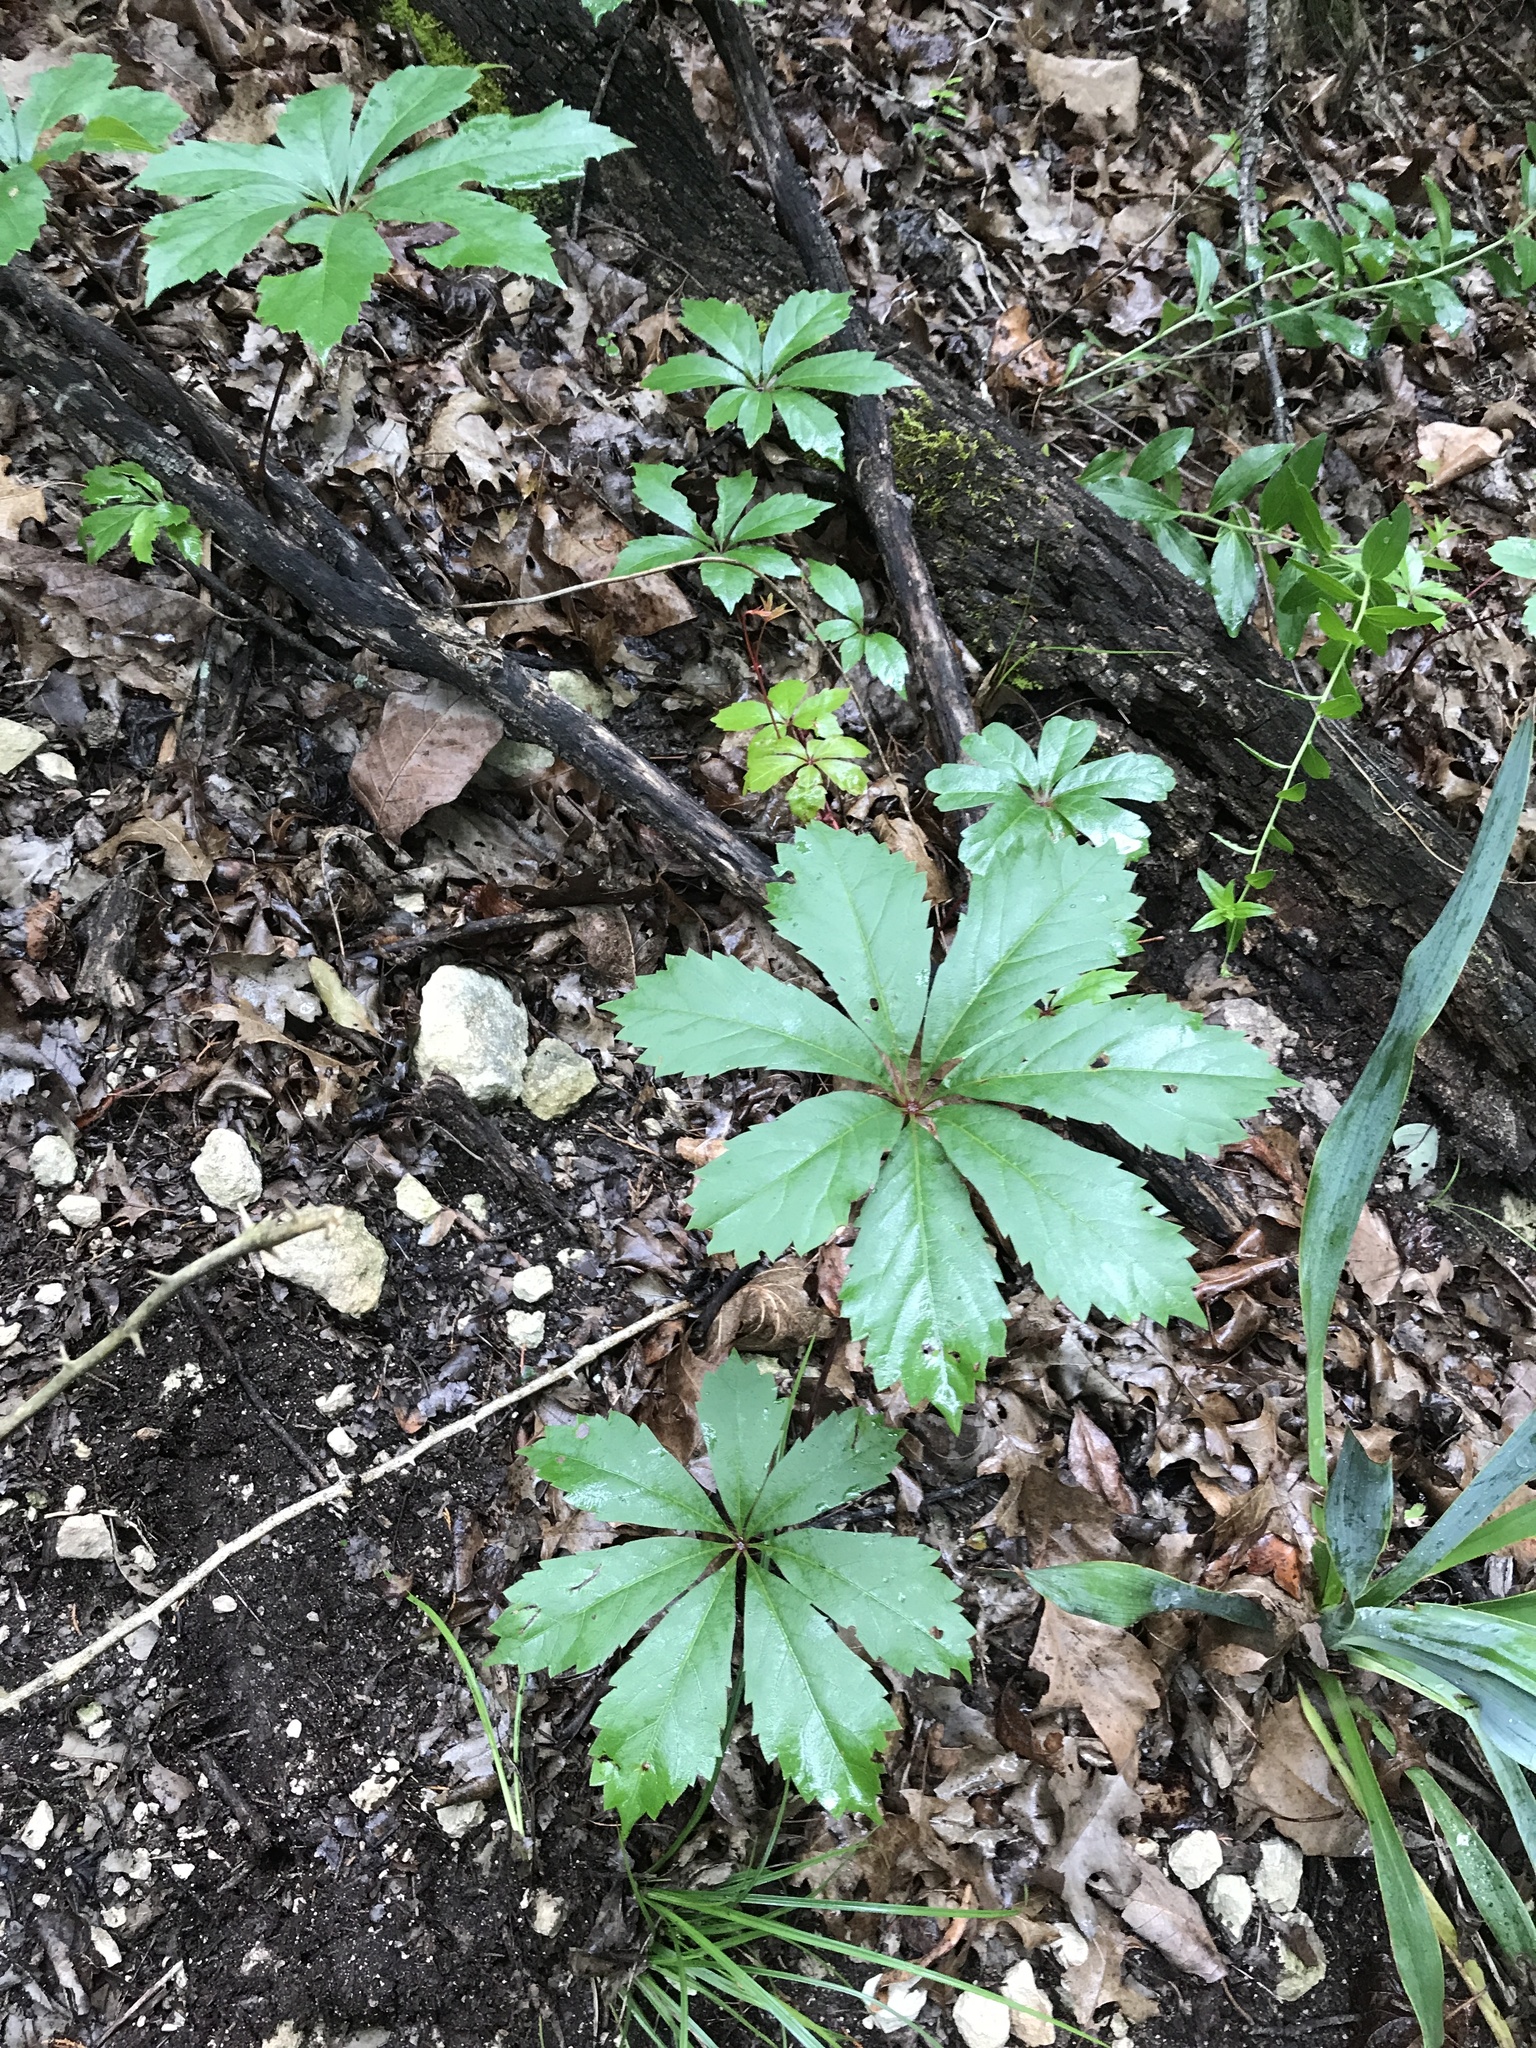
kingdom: Plantae
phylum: Tracheophyta
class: Magnoliopsida
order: Vitales
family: Vitaceae
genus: Parthenocissus
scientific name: Parthenocissus heptaphylla
